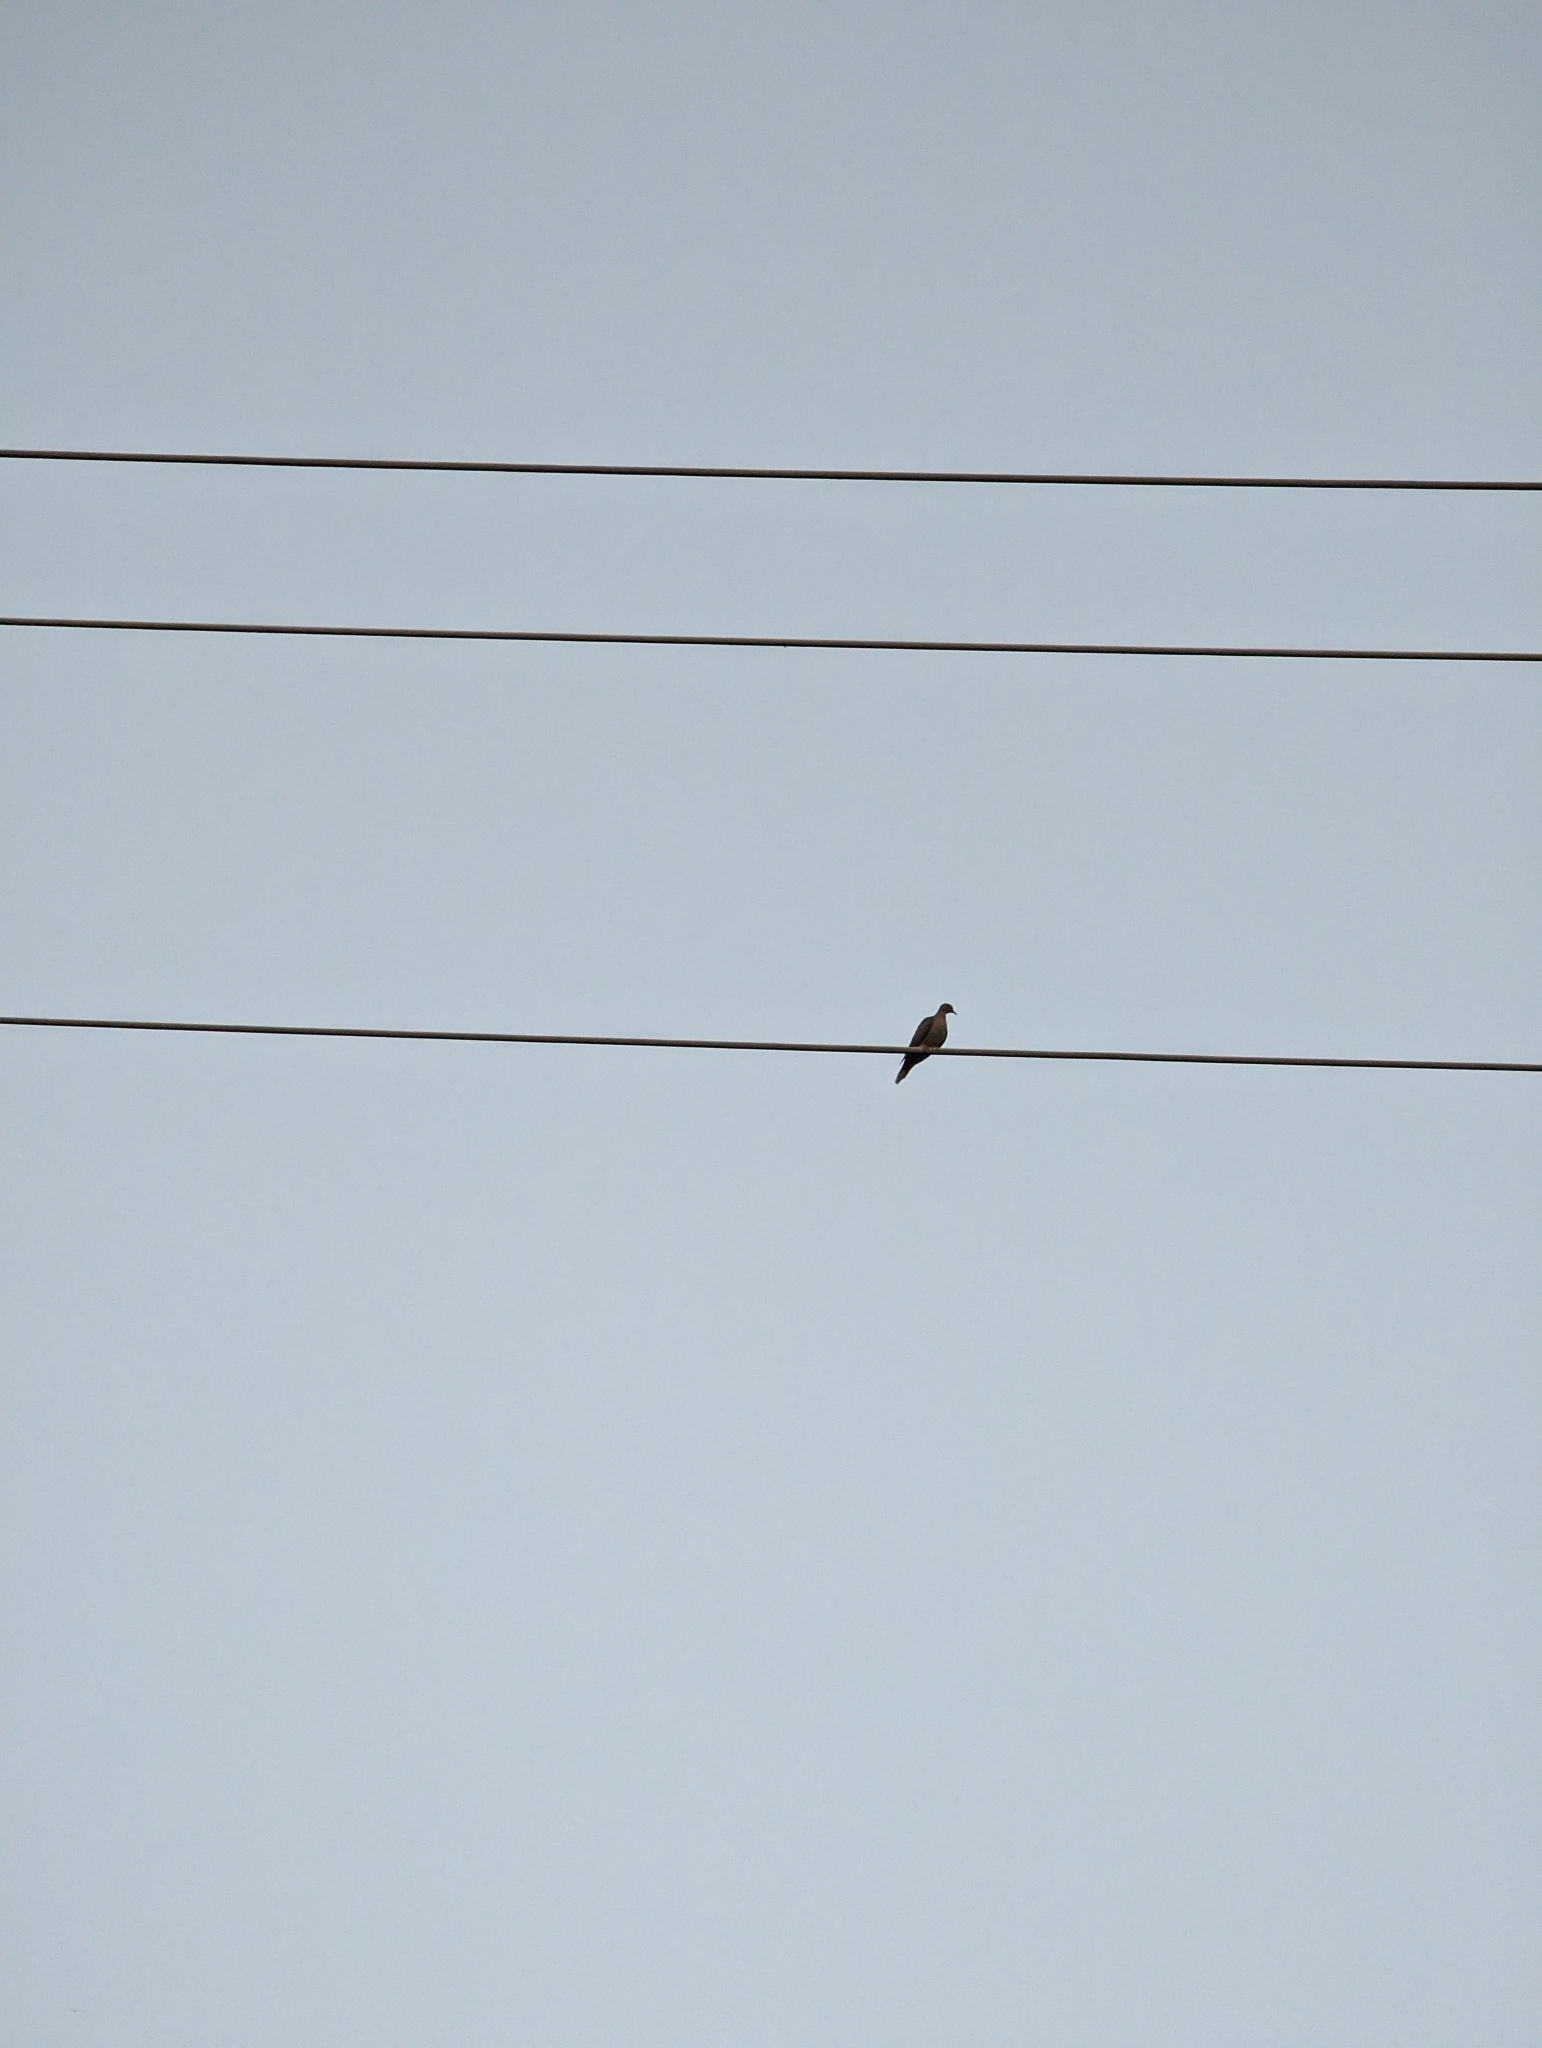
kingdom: Animalia
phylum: Chordata
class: Aves
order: Columbiformes
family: Columbidae
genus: Zenaida
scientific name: Zenaida macroura
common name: Mourning dove
